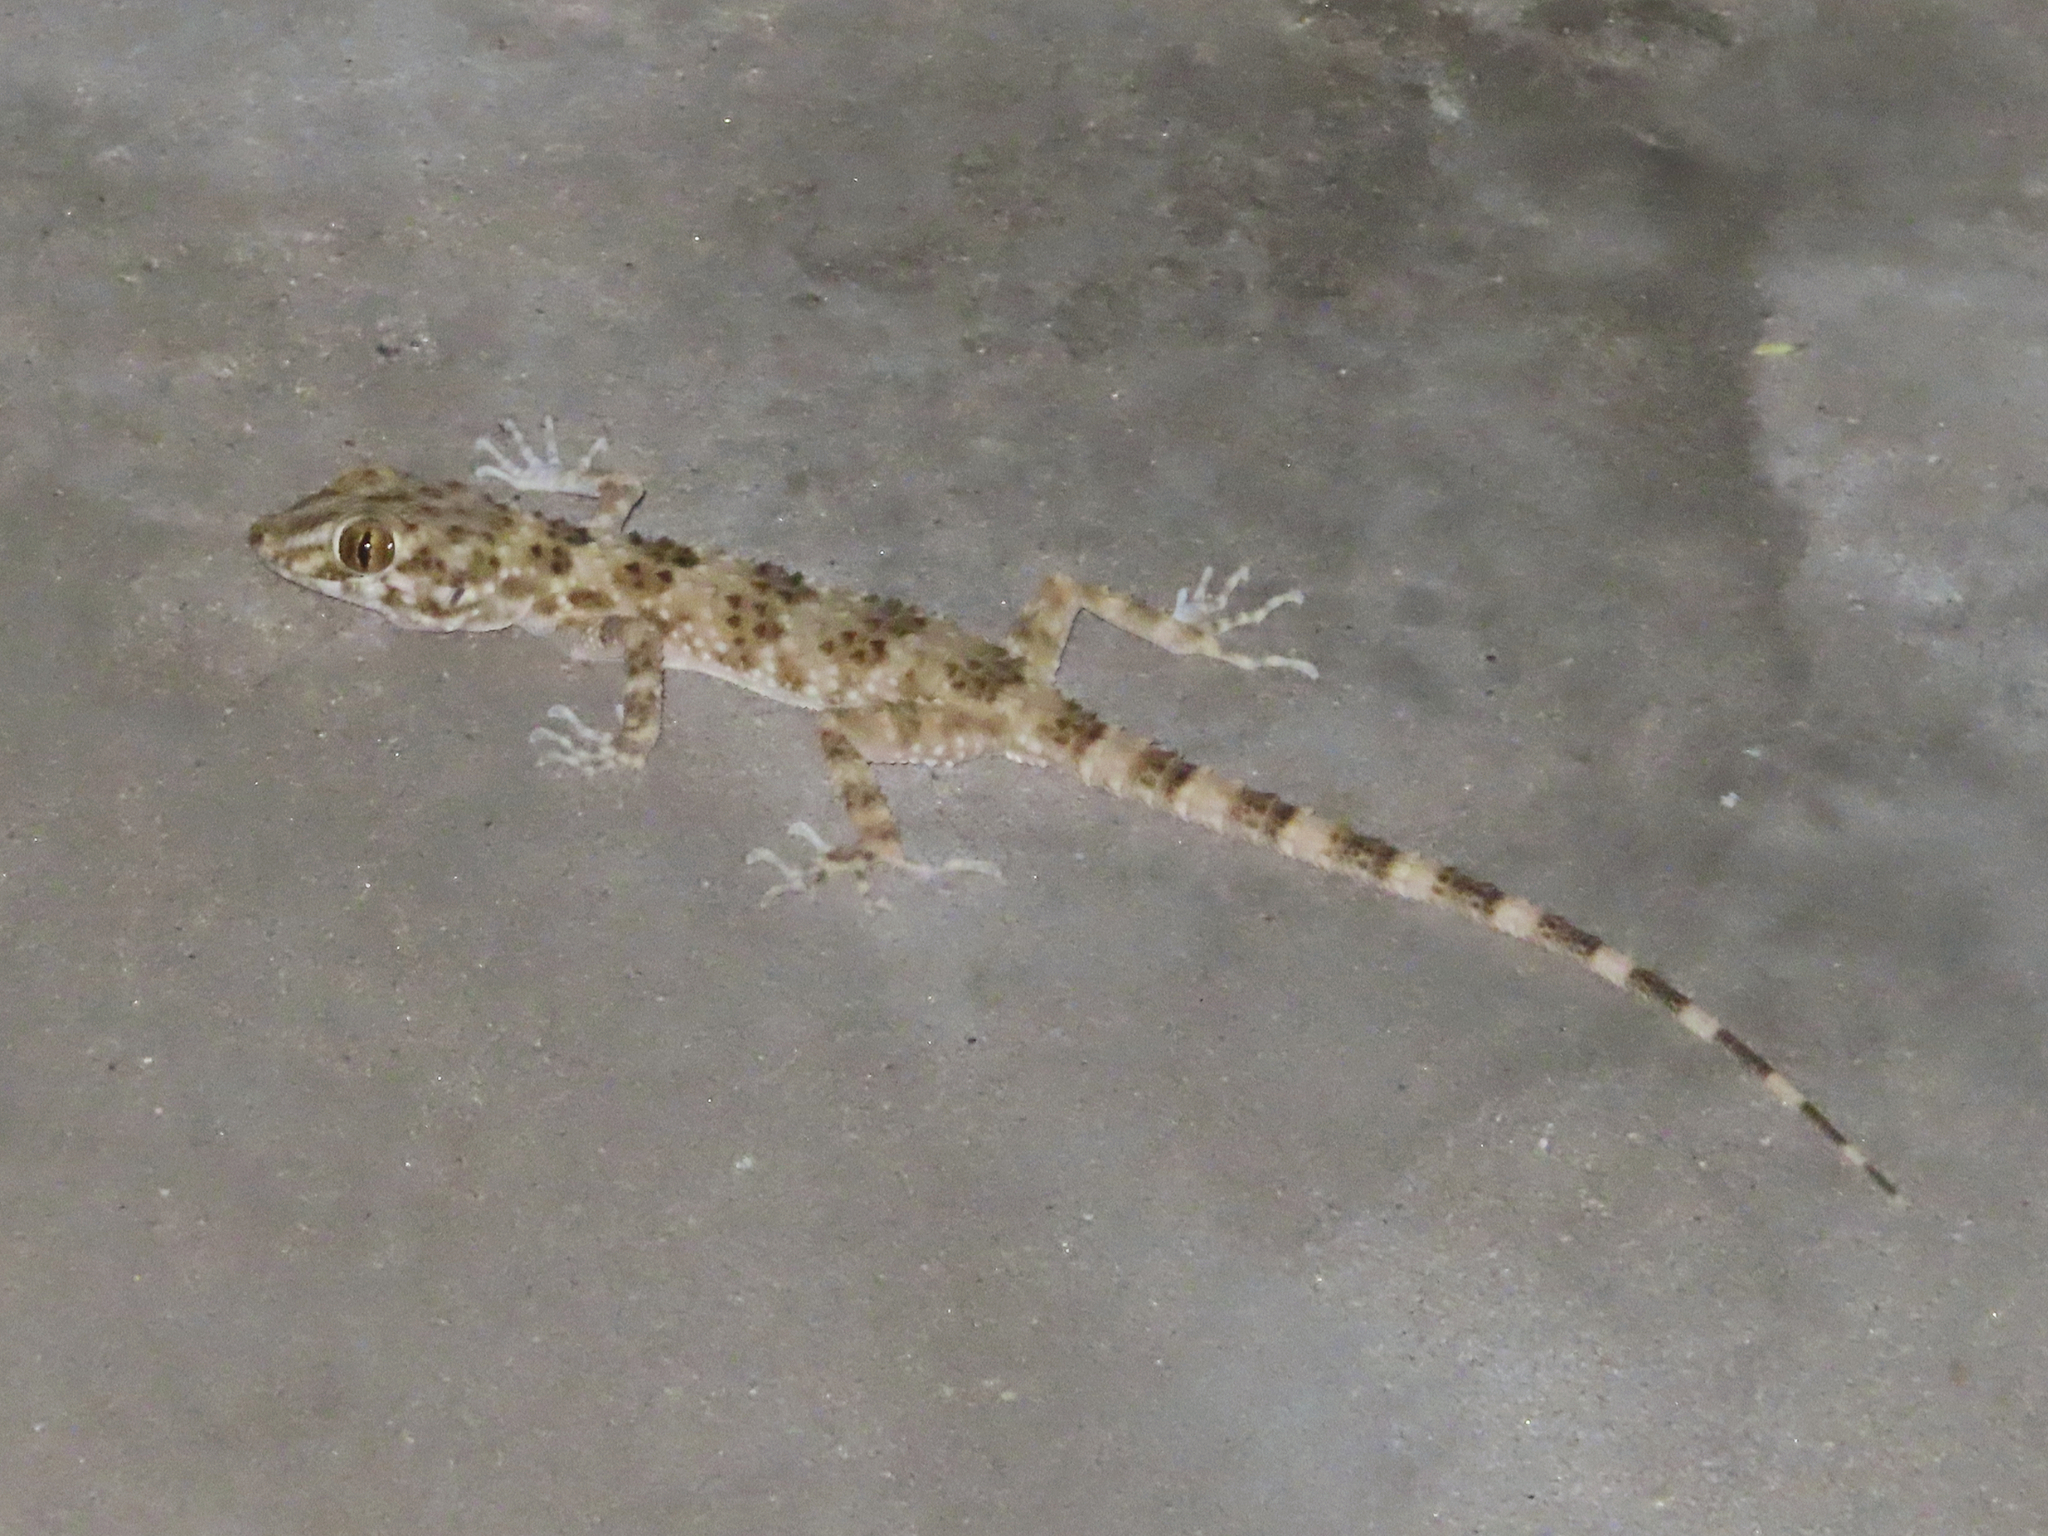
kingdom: Animalia
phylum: Chordata
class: Squamata
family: Gekkonidae
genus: Tenuidactylus
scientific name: Tenuidactylus caspius
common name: Caspian bent-toed gecko
